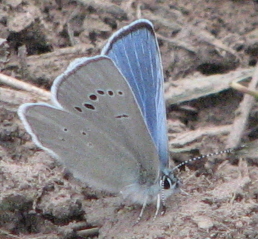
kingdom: Animalia
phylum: Arthropoda
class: Insecta
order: Lepidoptera
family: Lycaenidae
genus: Glaucopsyche
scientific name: Glaucopsyche lygdamus
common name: Silvery blue
